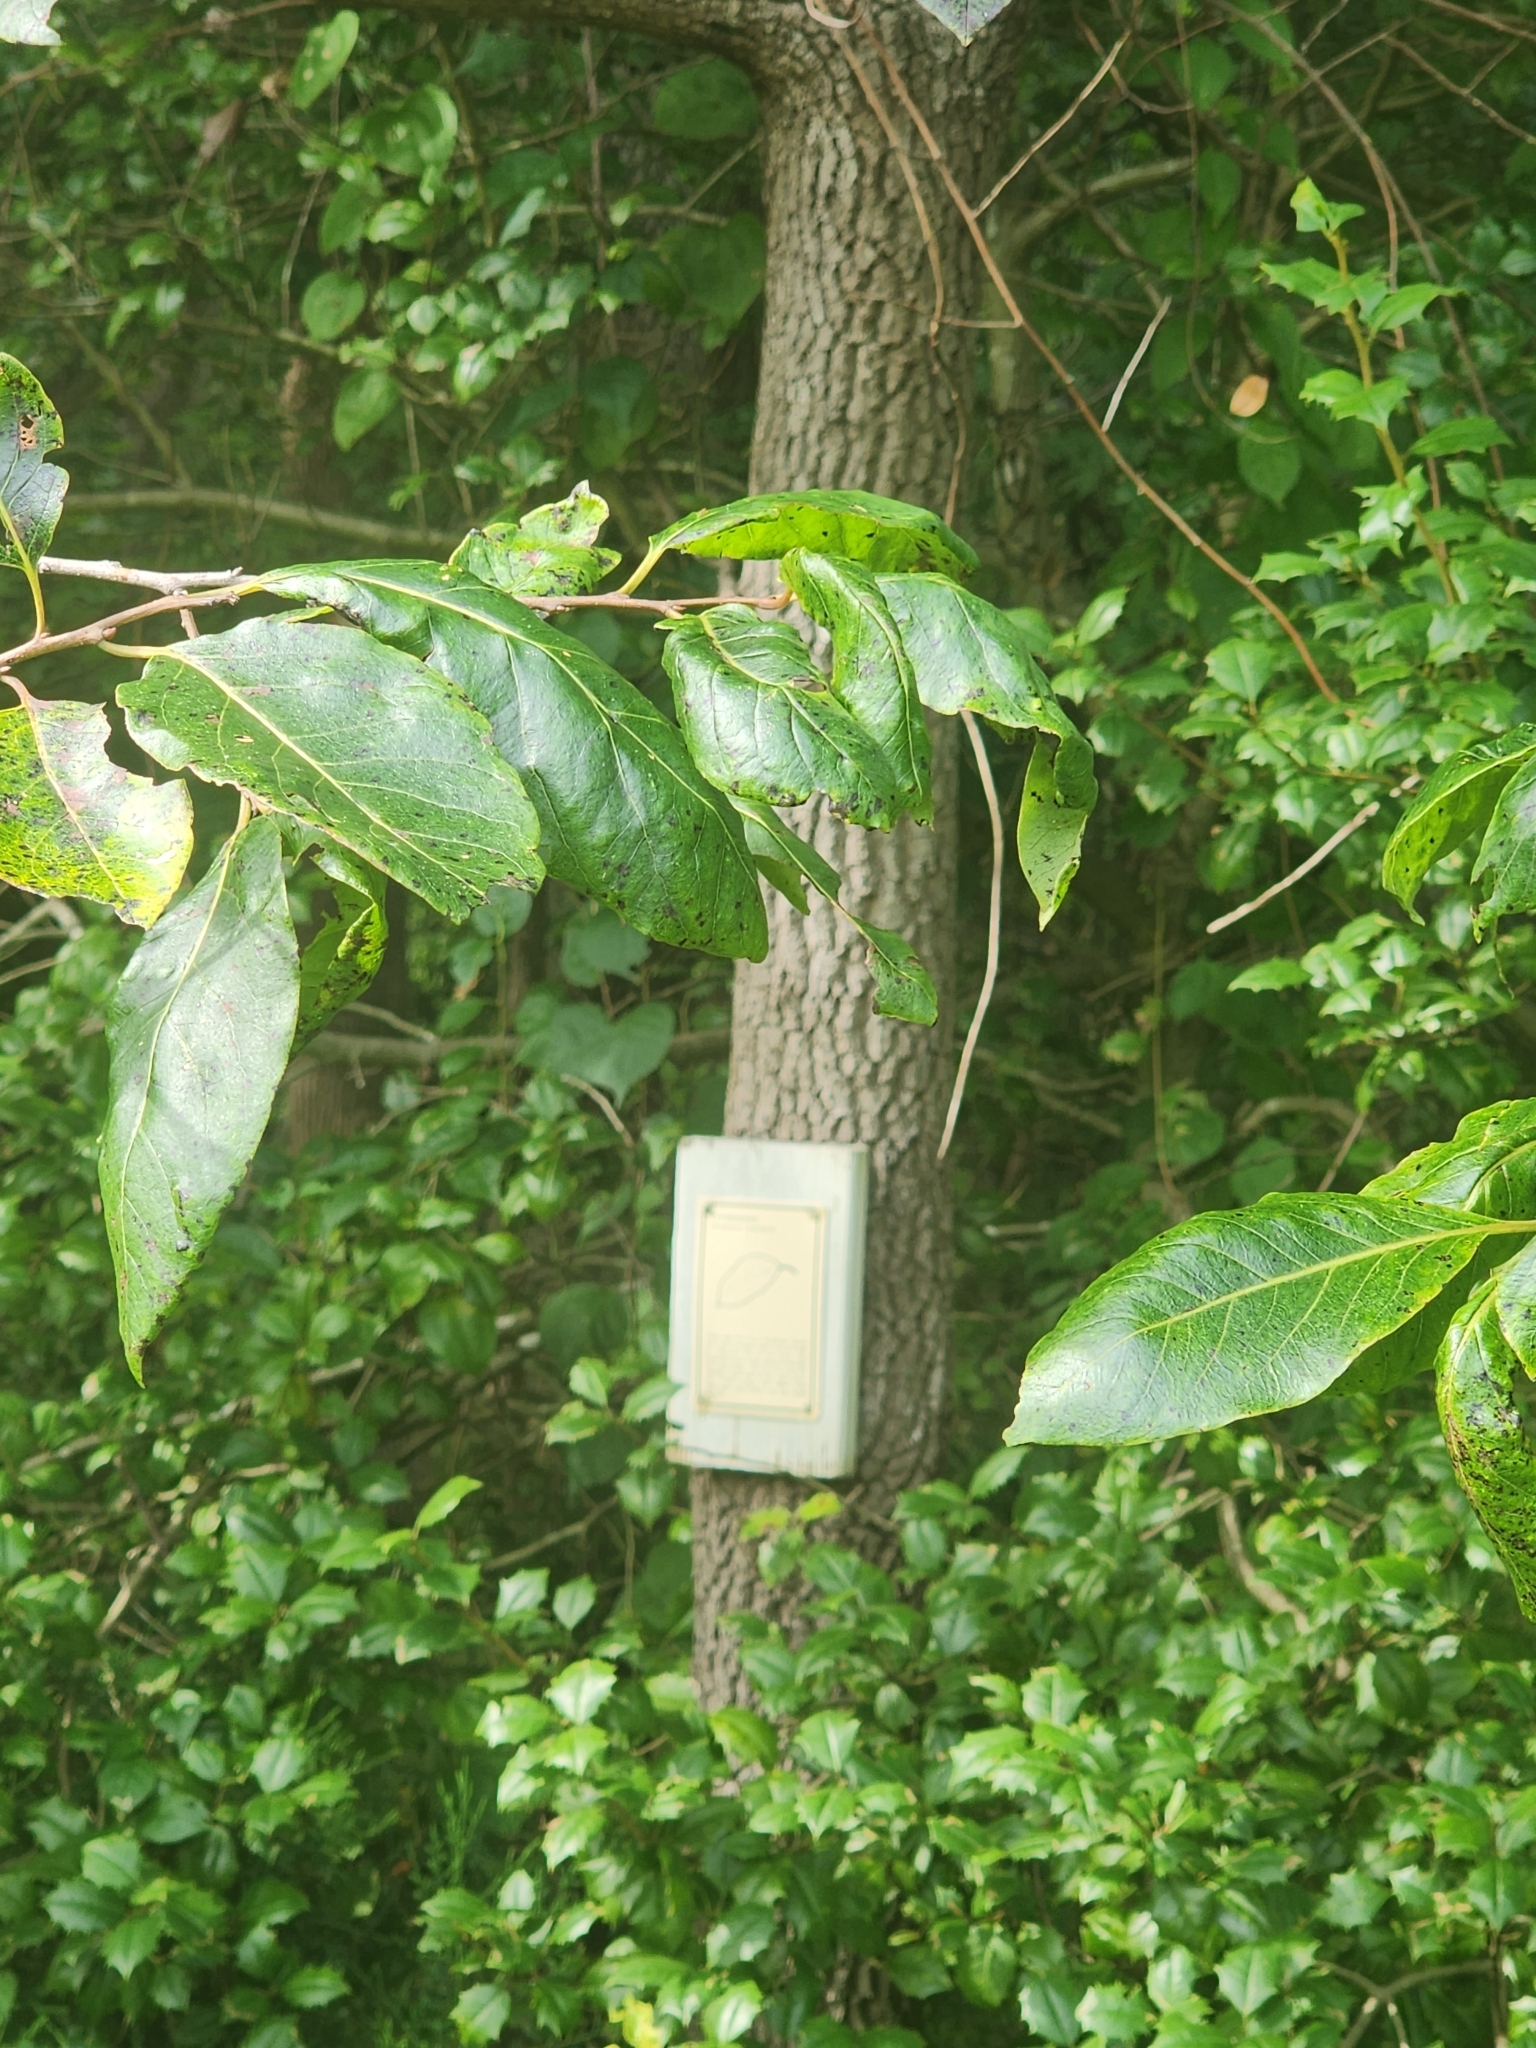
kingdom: Plantae
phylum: Tracheophyta
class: Magnoliopsida
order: Ericales
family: Ebenaceae
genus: Diospyros
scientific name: Diospyros virginiana
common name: Persimmon
